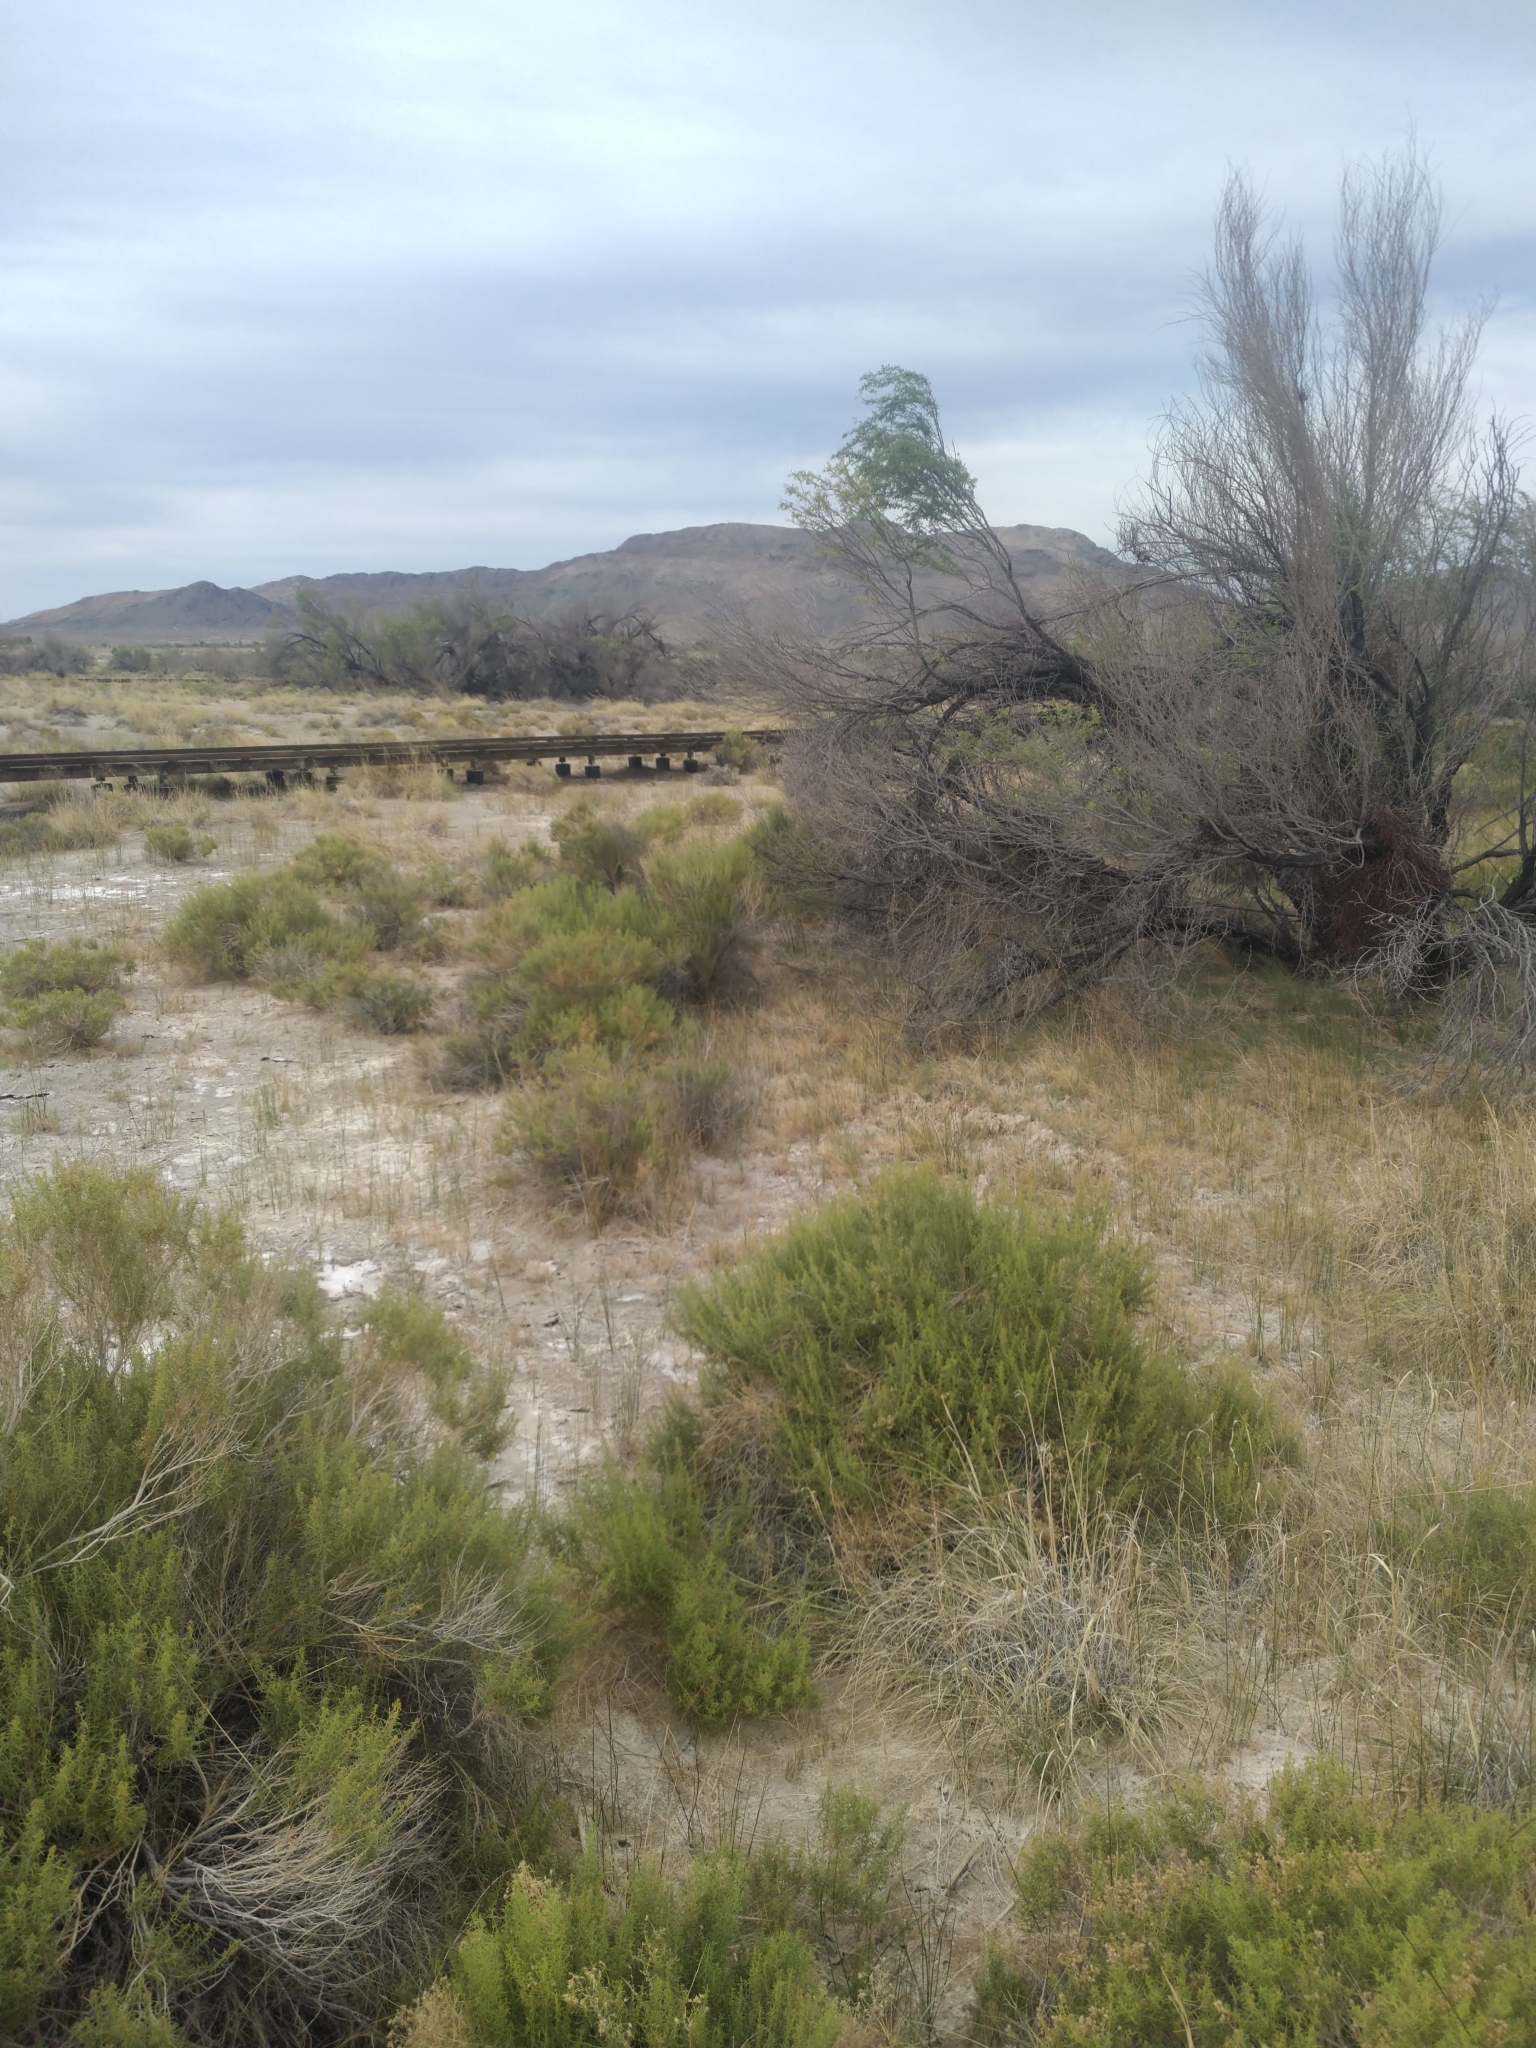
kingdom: Animalia
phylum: Chordata
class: Mammalia
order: Lagomorpha
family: Leporidae
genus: Lepus
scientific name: Lepus californicus
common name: Black-tailed jackrabbit
